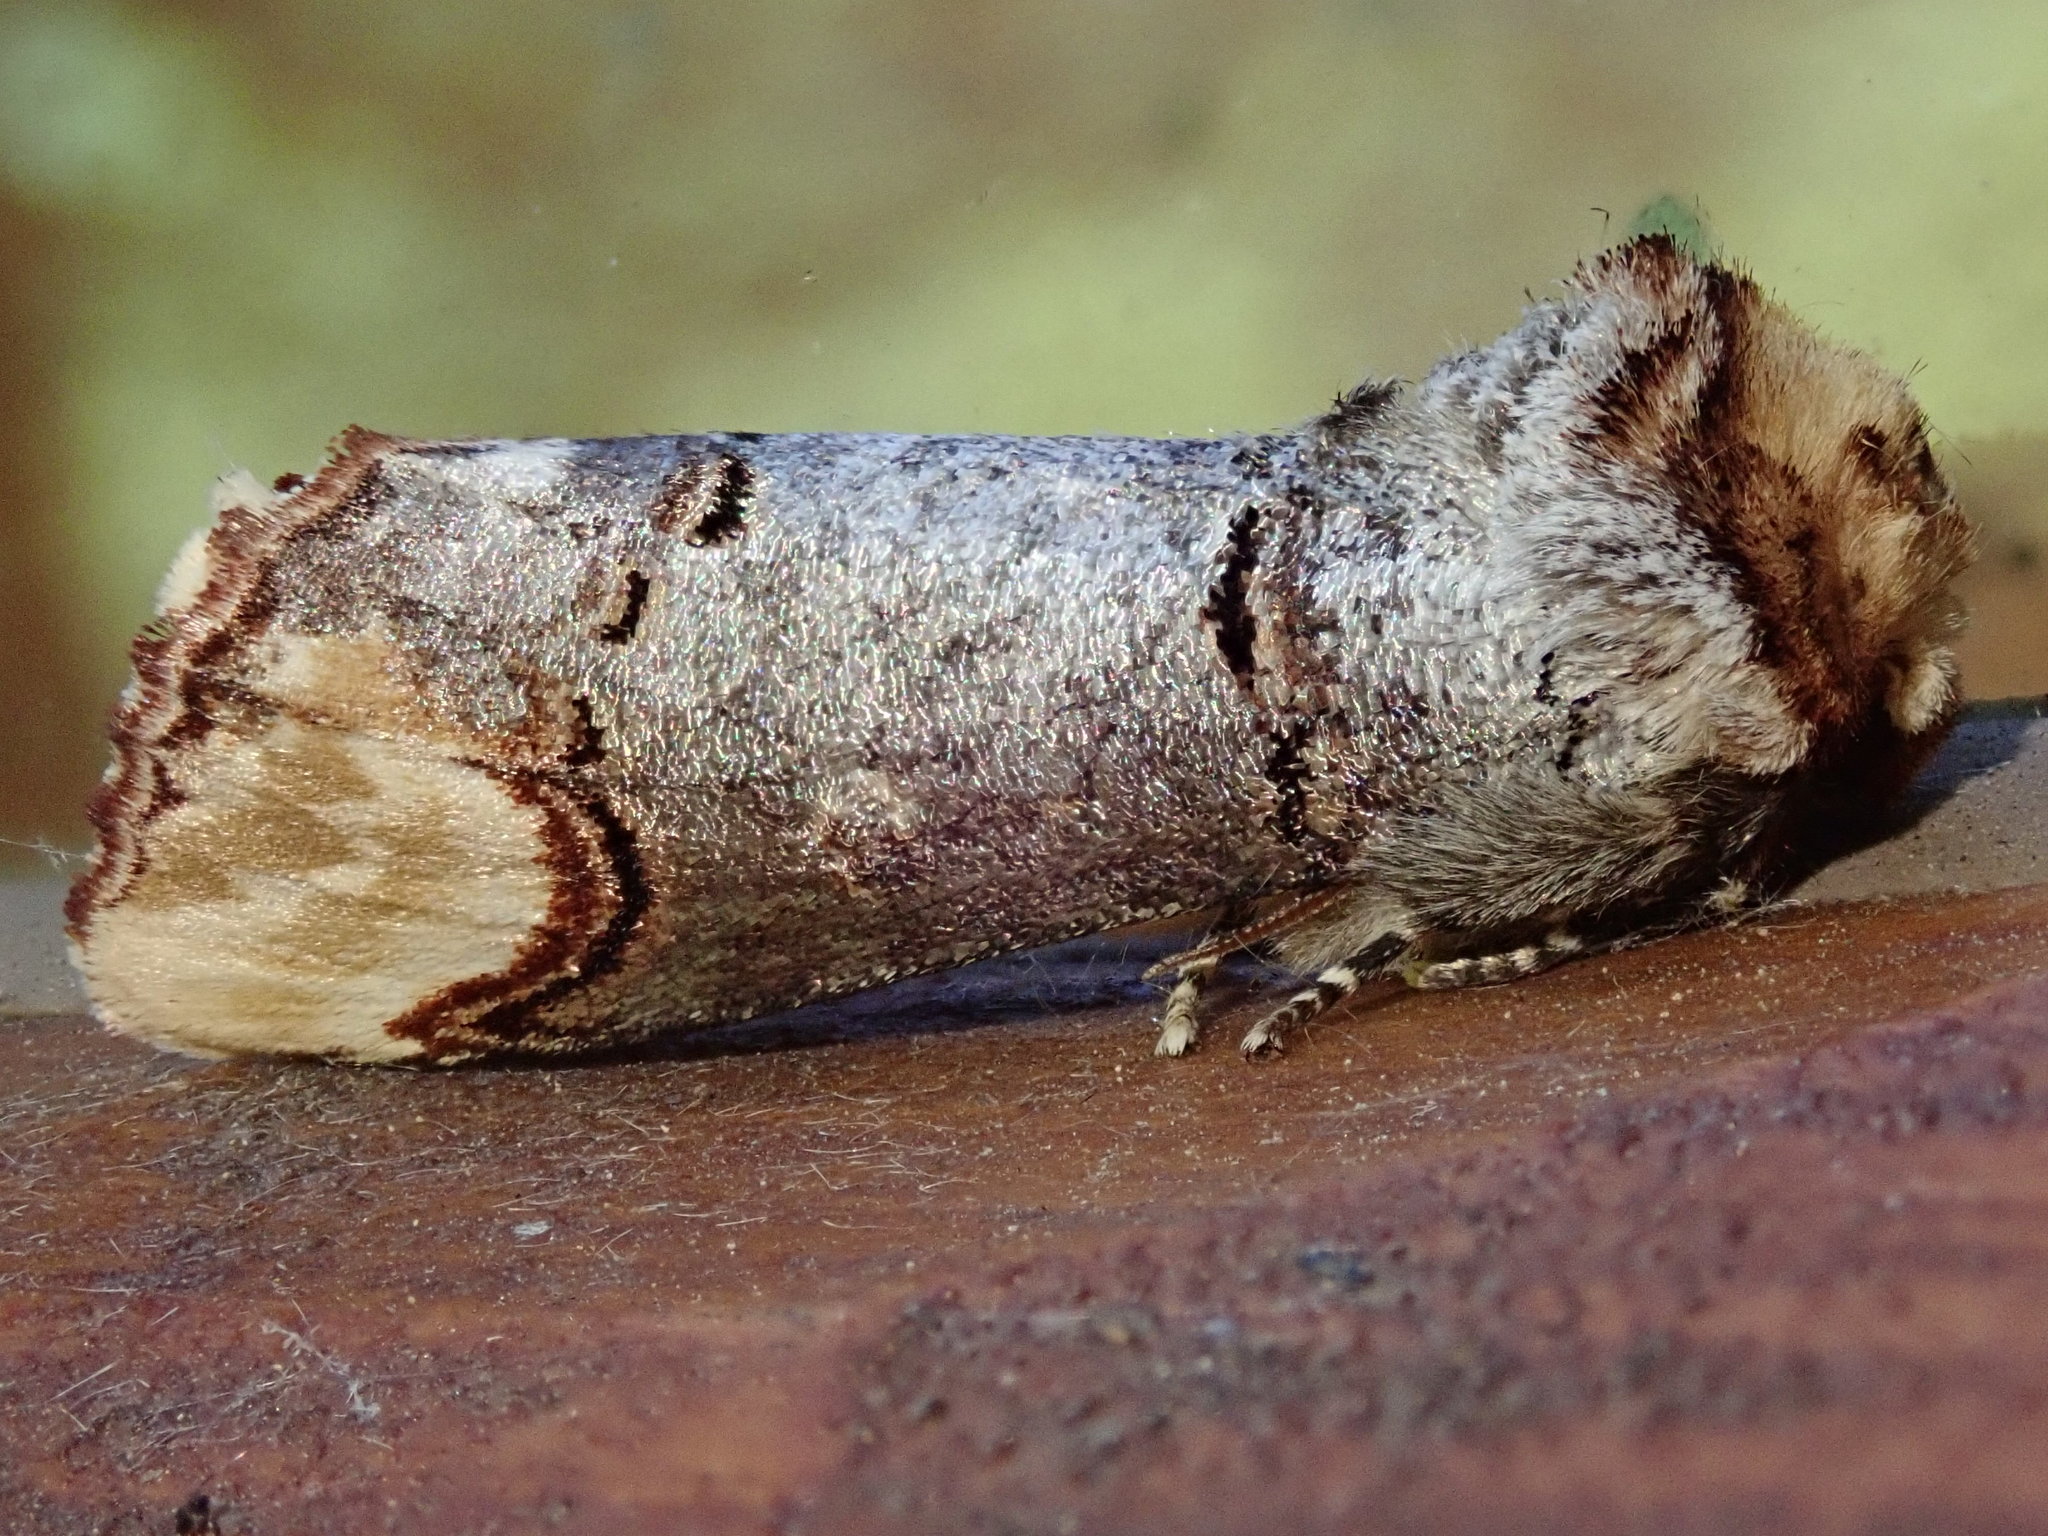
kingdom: Animalia
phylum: Arthropoda
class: Insecta
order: Lepidoptera
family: Notodontidae
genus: Phalera
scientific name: Phalera bucephala
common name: Buff-tip
